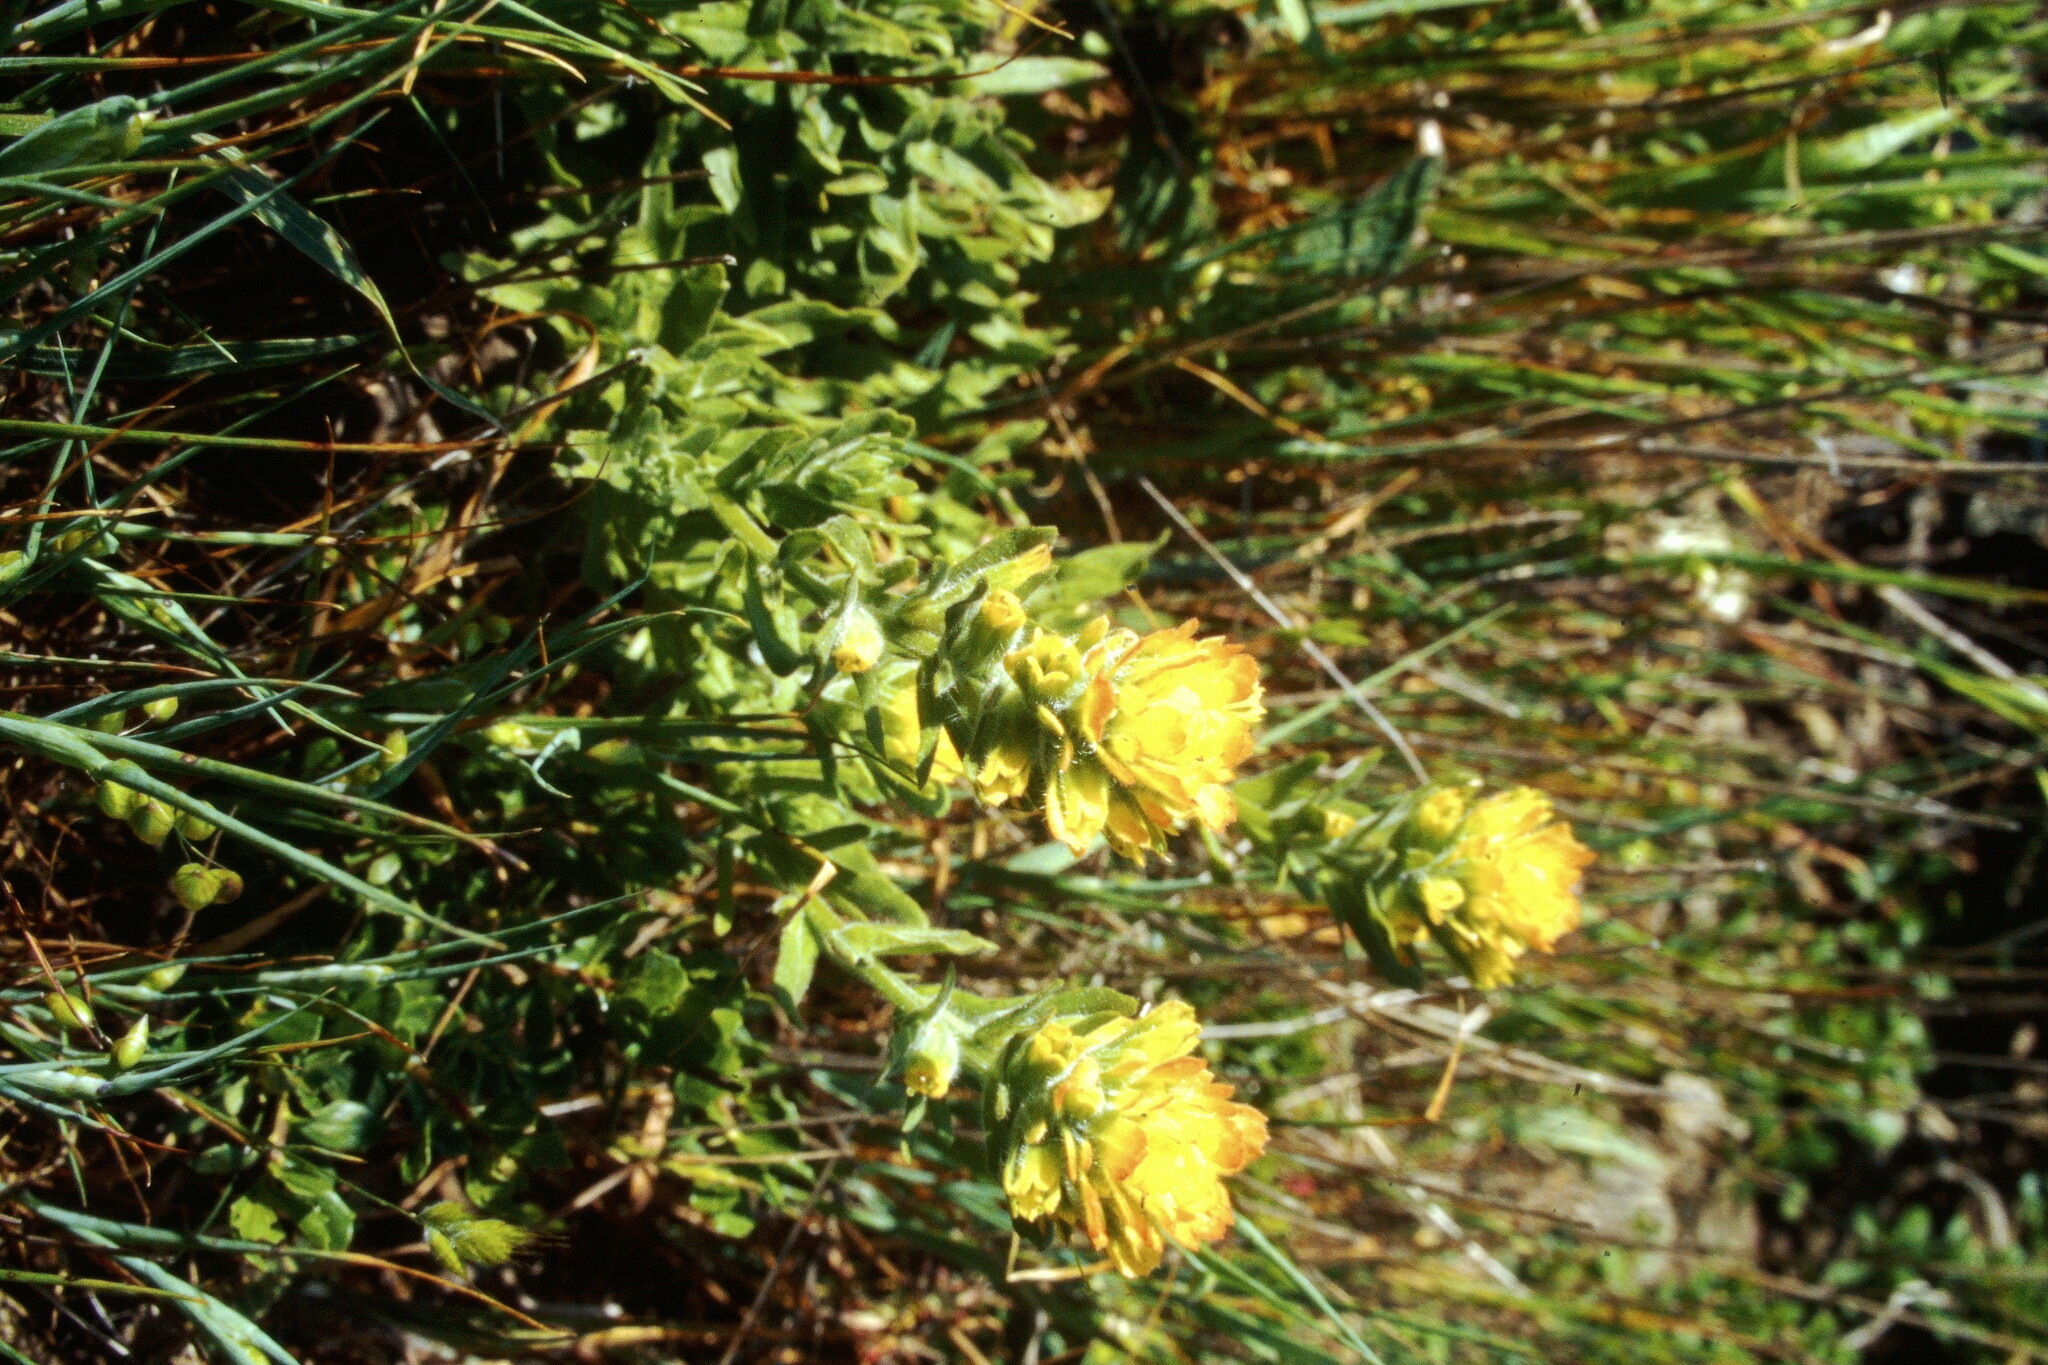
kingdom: Plantae
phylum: Tracheophyta
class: Magnoliopsida
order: Lamiales
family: Orobanchaceae
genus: Castilleja
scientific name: Castilleja wightii
